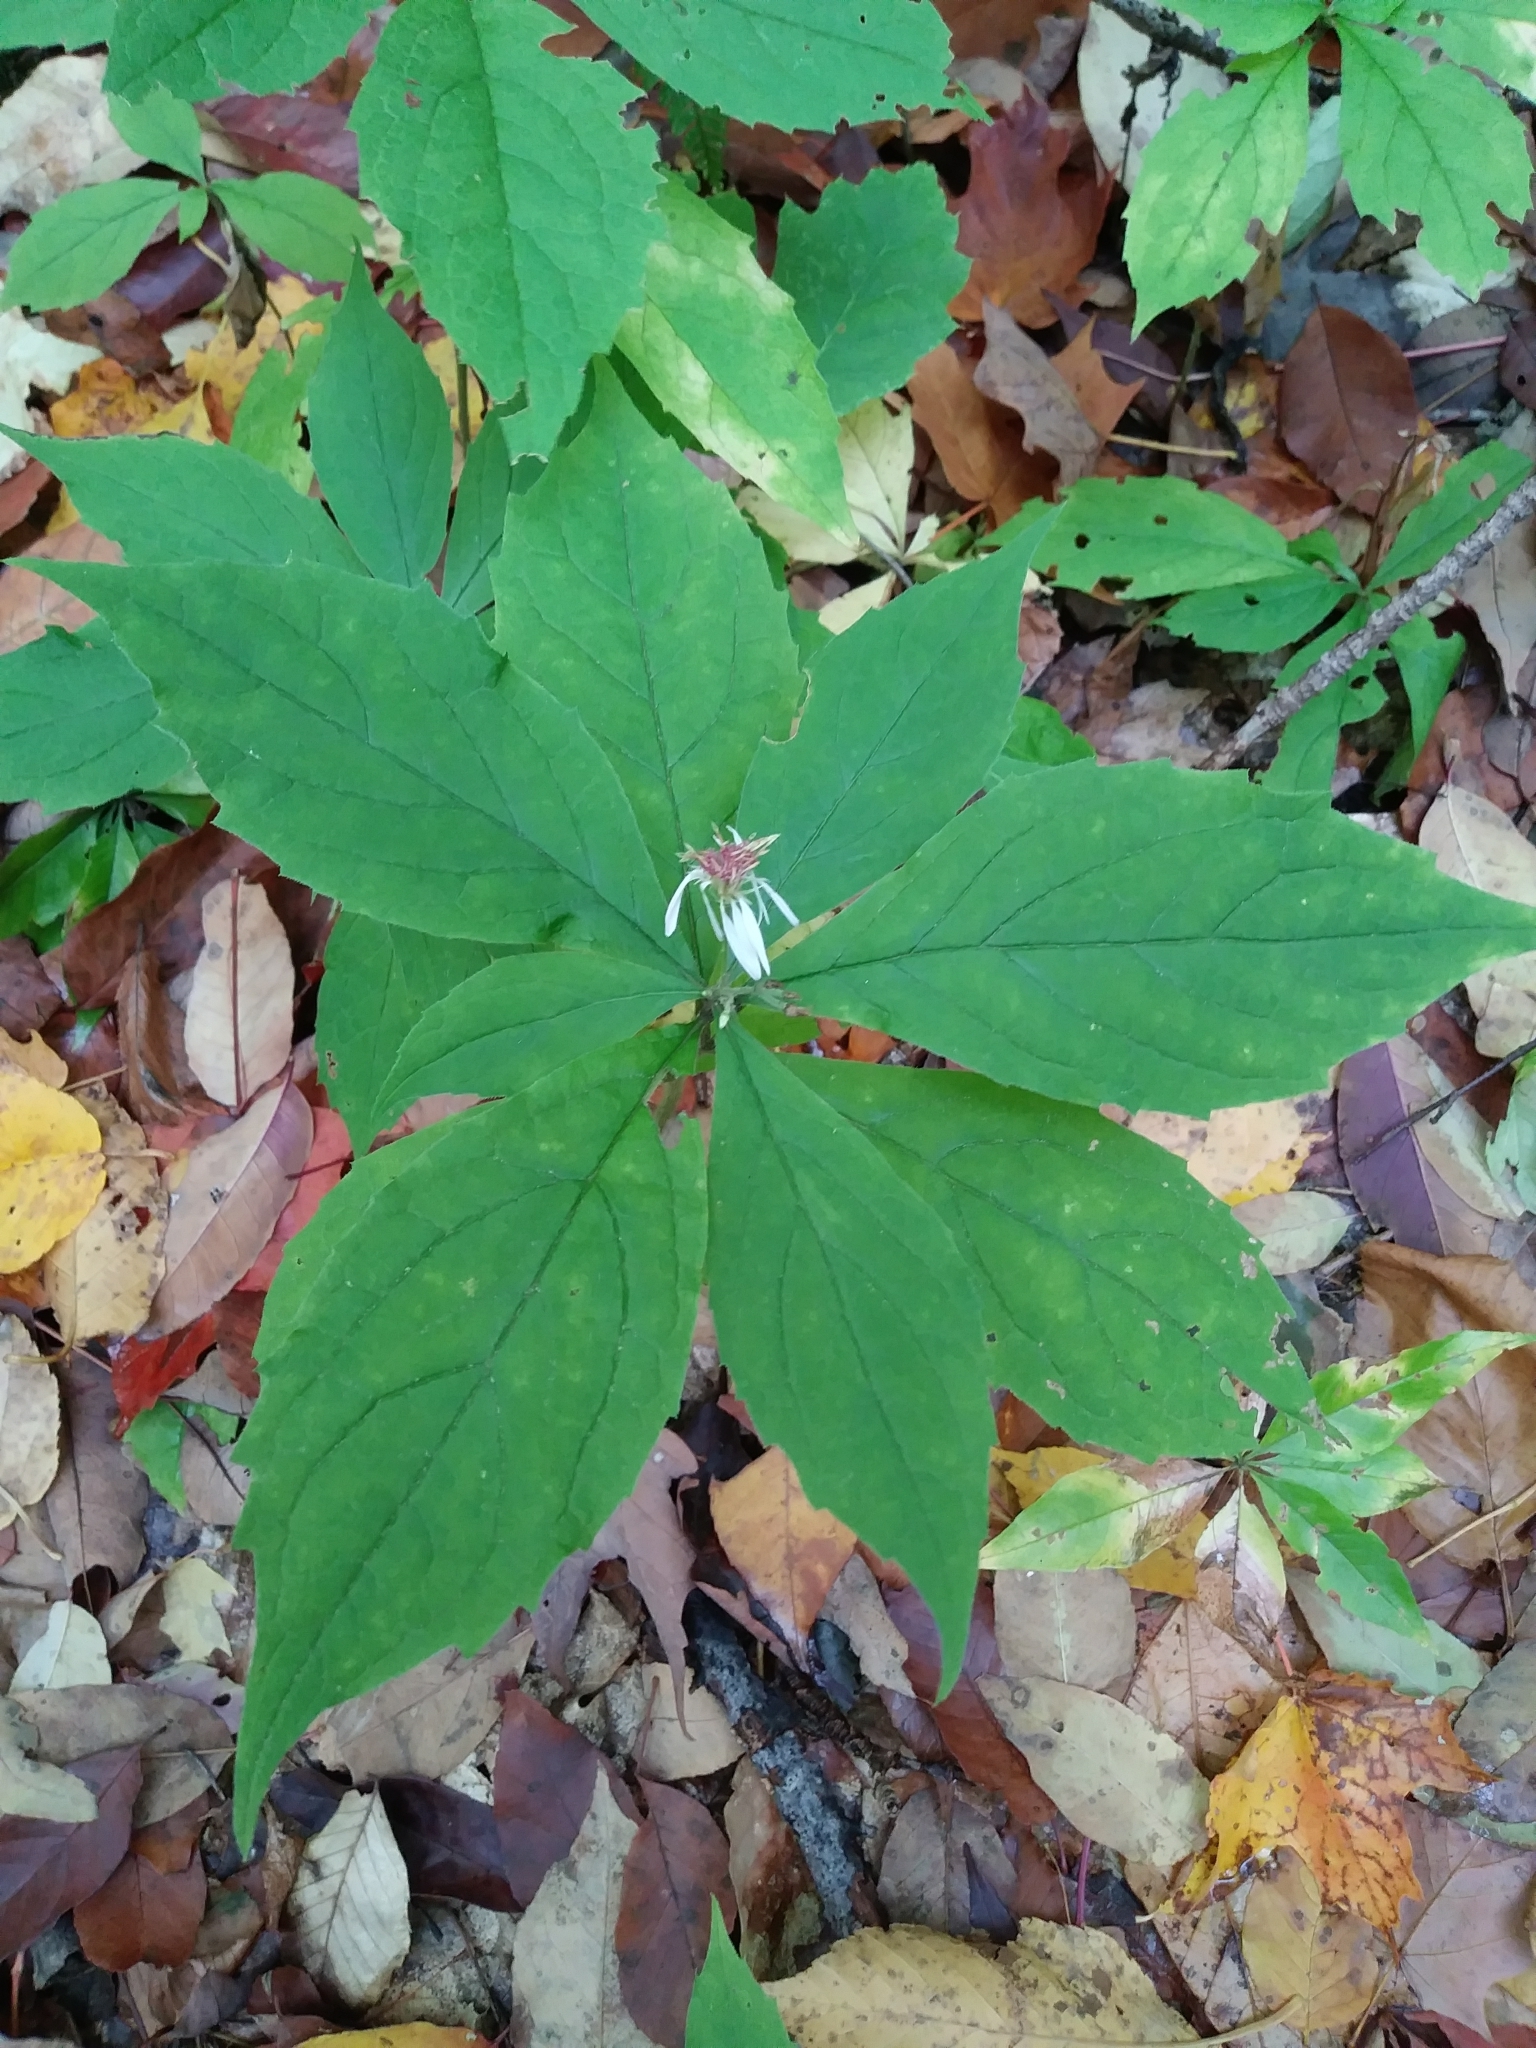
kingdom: Plantae
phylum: Tracheophyta
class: Magnoliopsida
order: Asterales
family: Asteraceae
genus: Oclemena
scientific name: Oclemena acuminata
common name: Mountain aster
